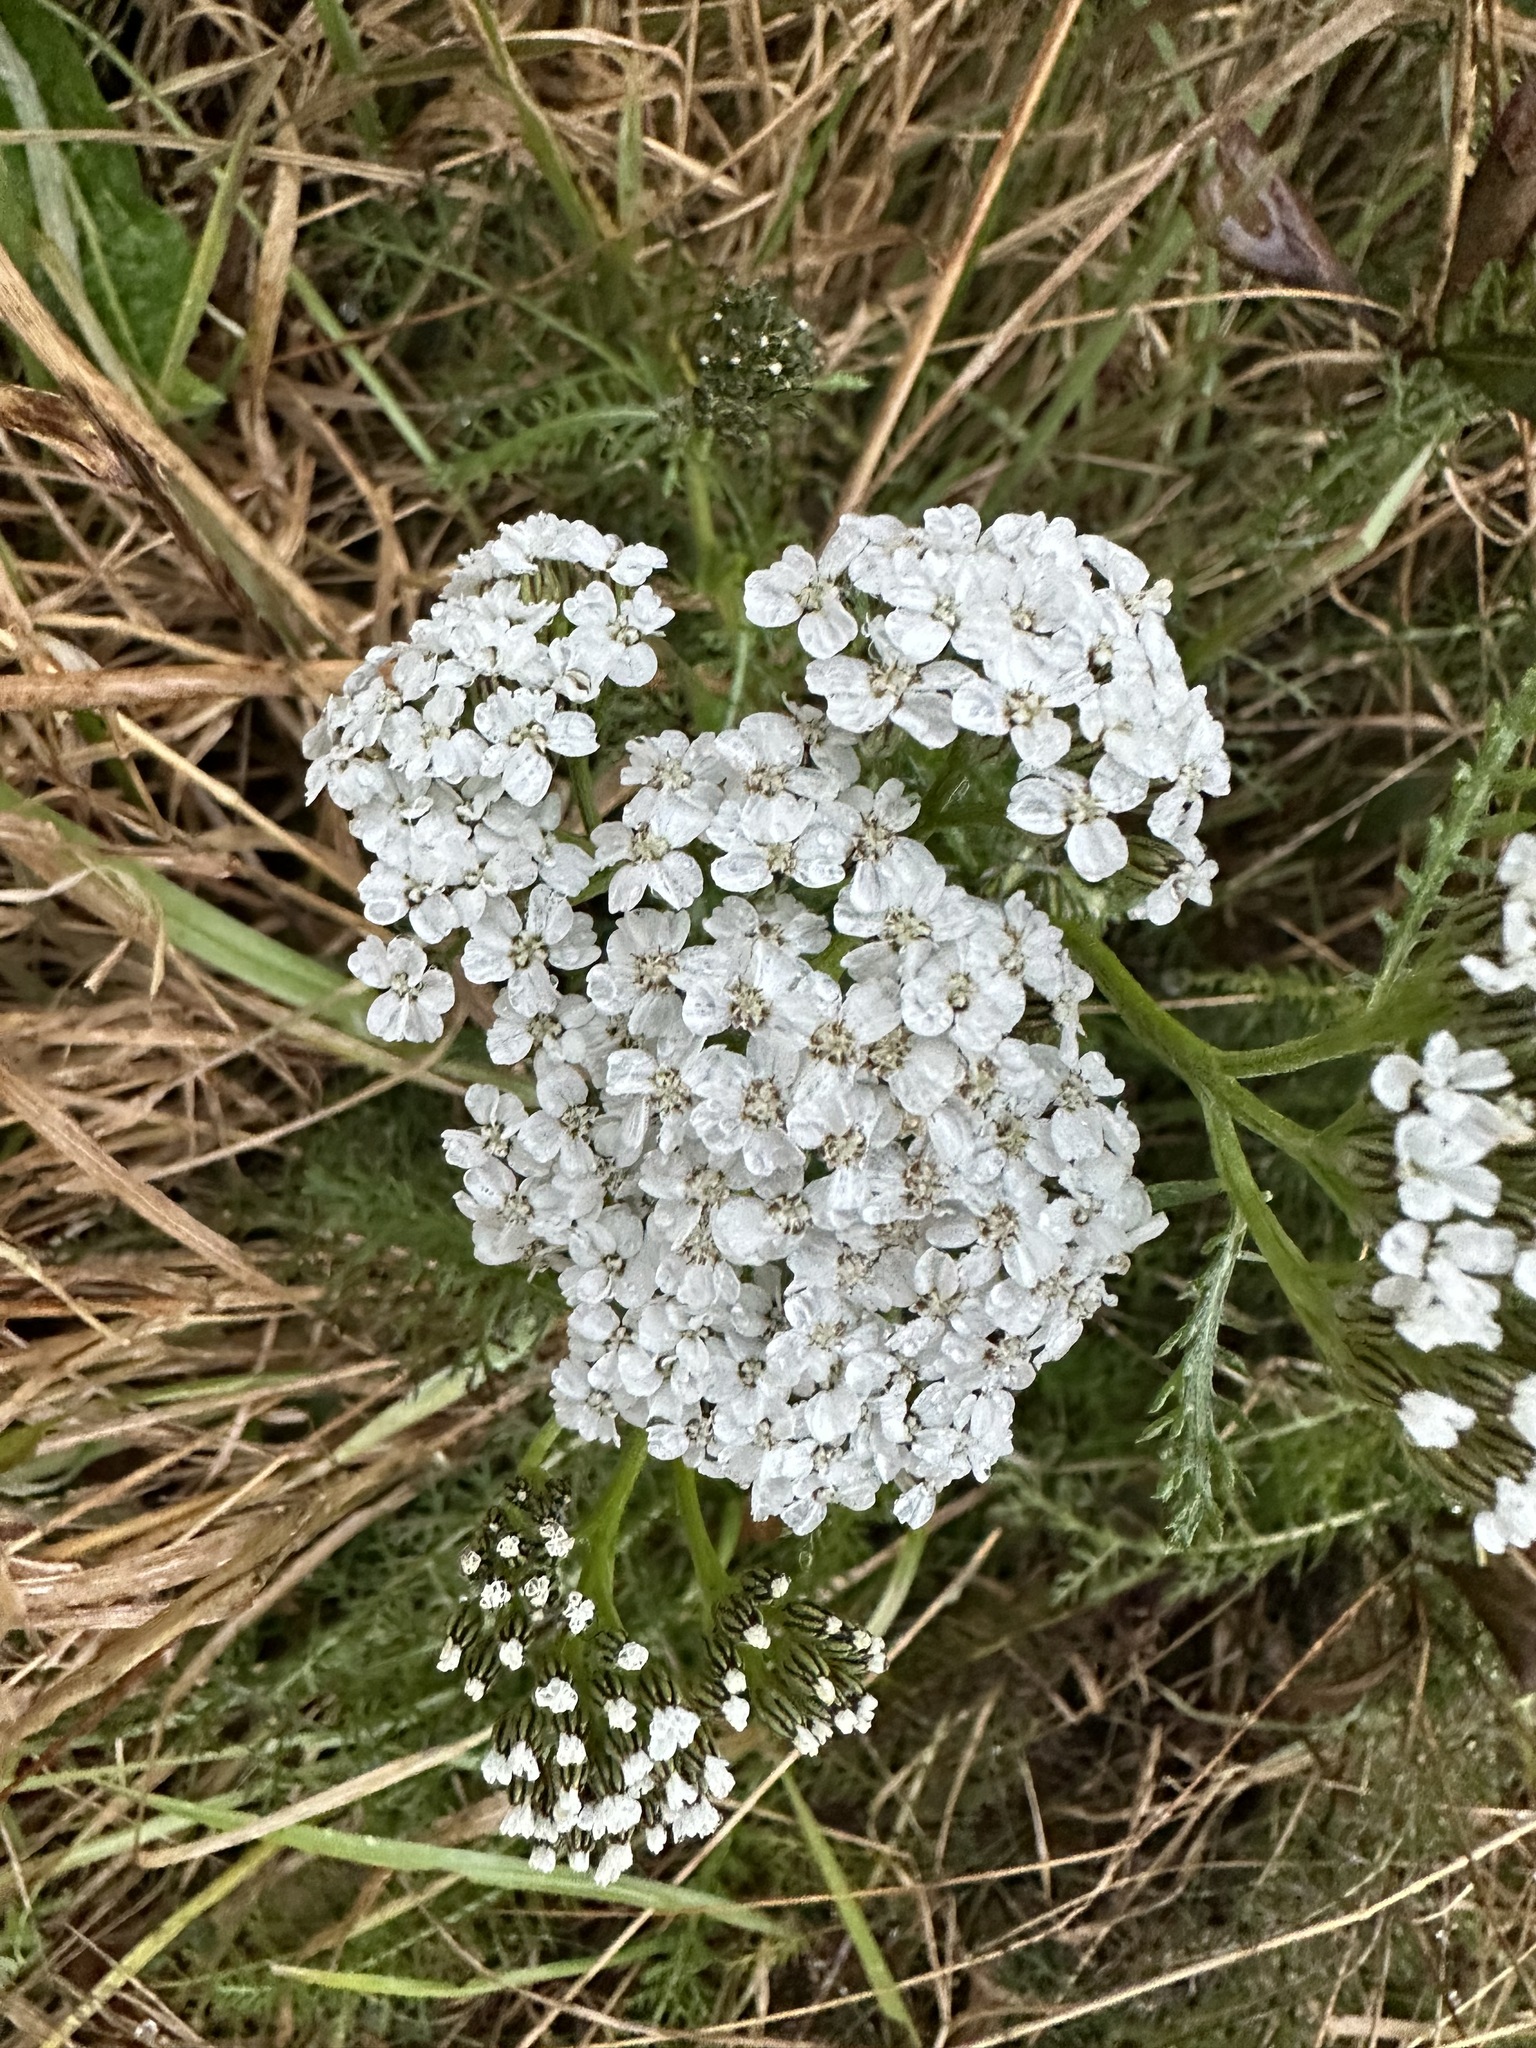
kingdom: Plantae
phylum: Tracheophyta
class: Magnoliopsida
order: Asterales
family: Asteraceae
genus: Achillea
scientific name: Achillea millefolium
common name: Yarrow
